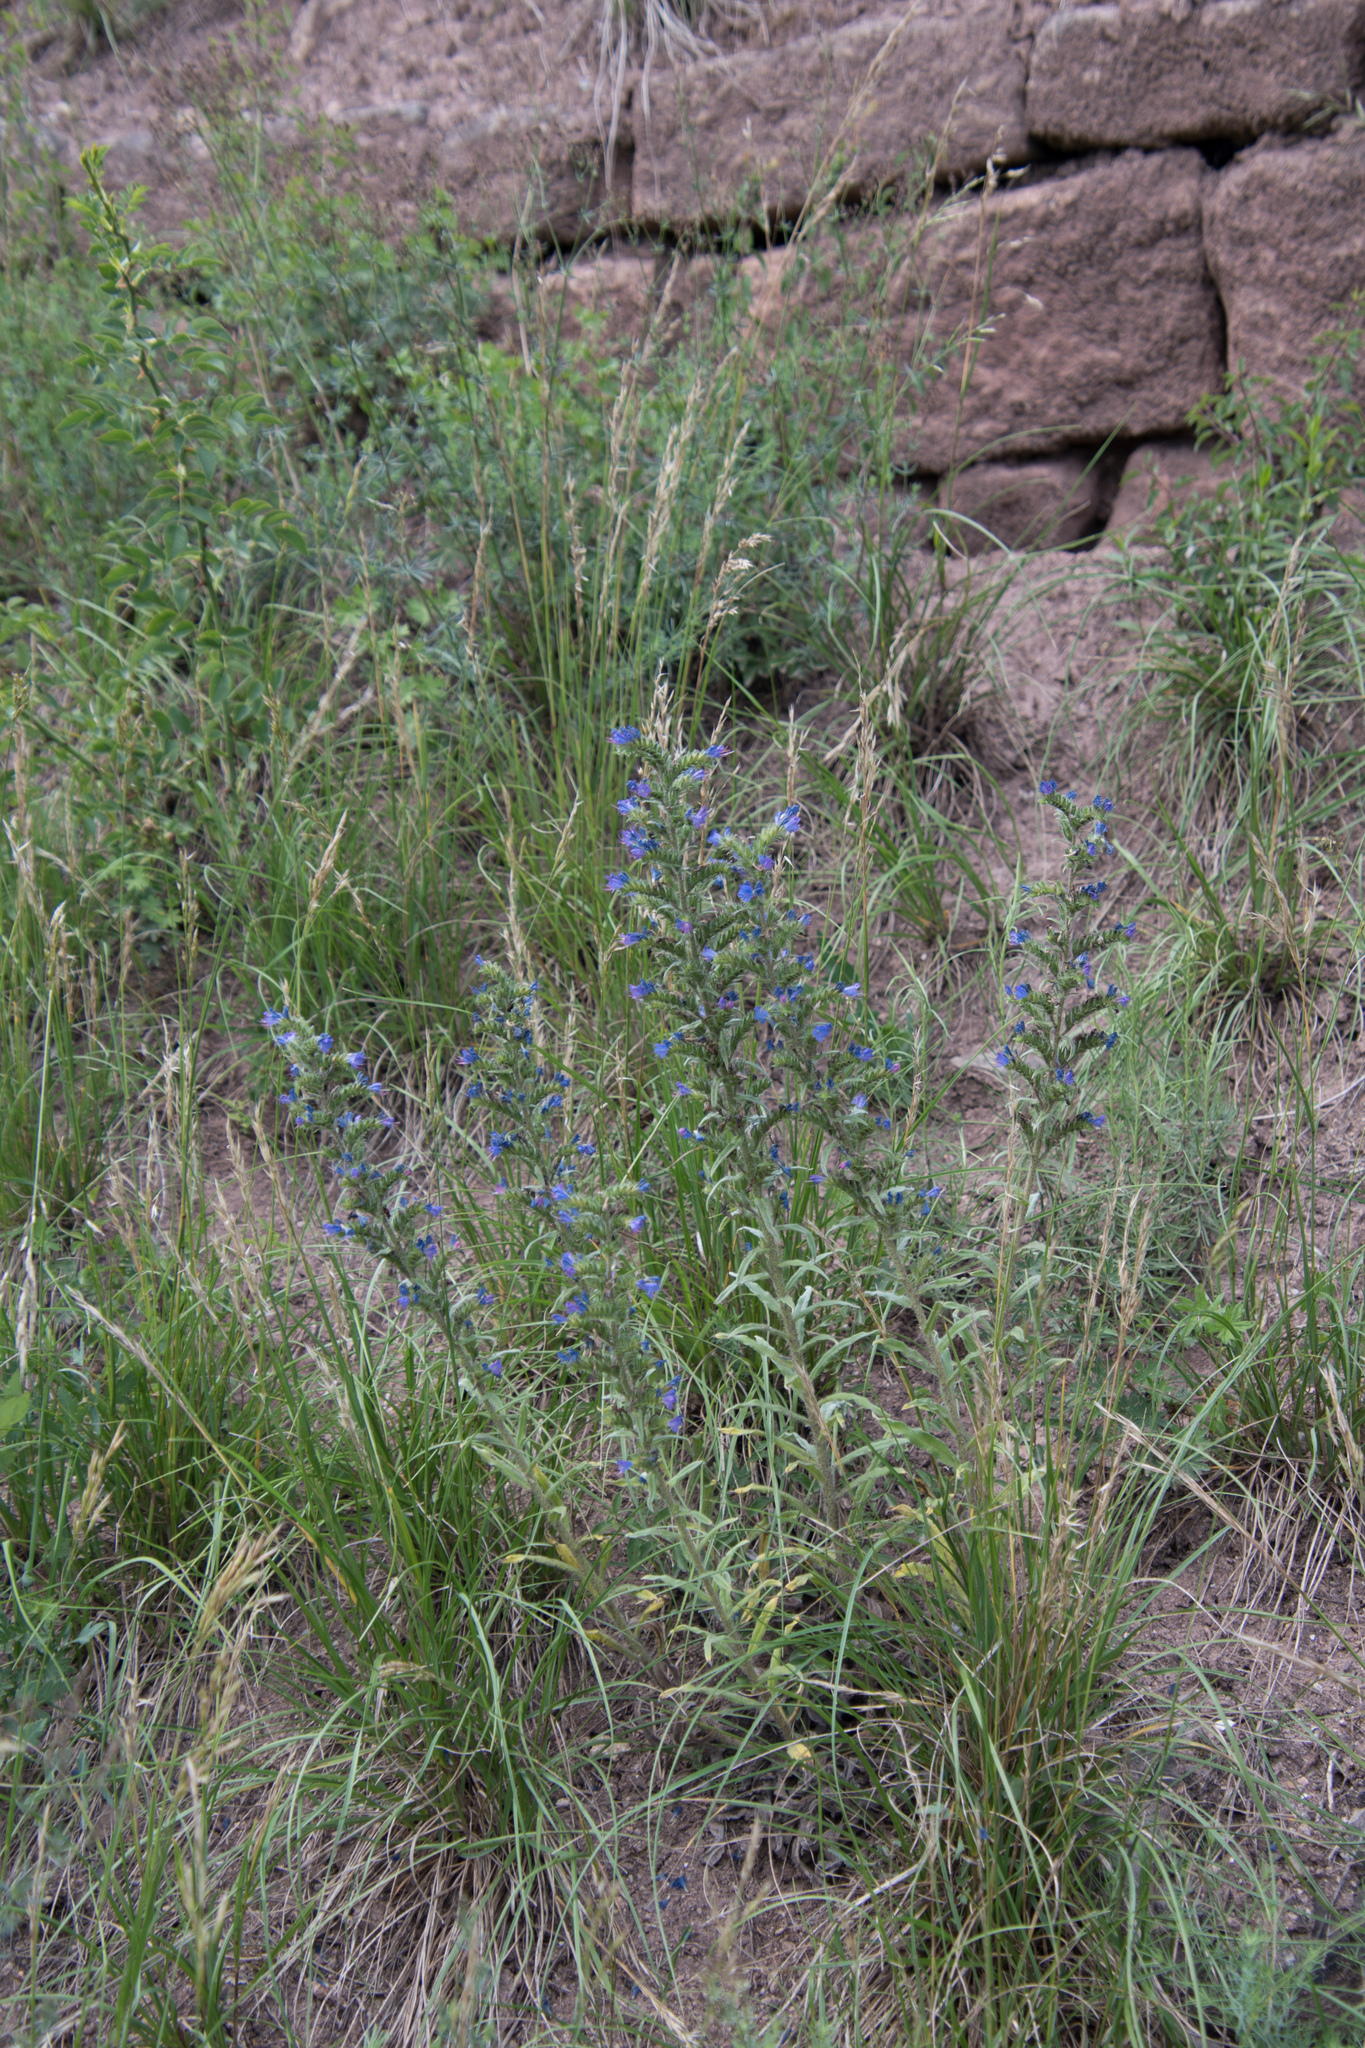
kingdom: Plantae
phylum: Tracheophyta
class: Magnoliopsida
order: Boraginales
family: Boraginaceae
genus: Echium
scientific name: Echium vulgare
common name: Common viper's bugloss
